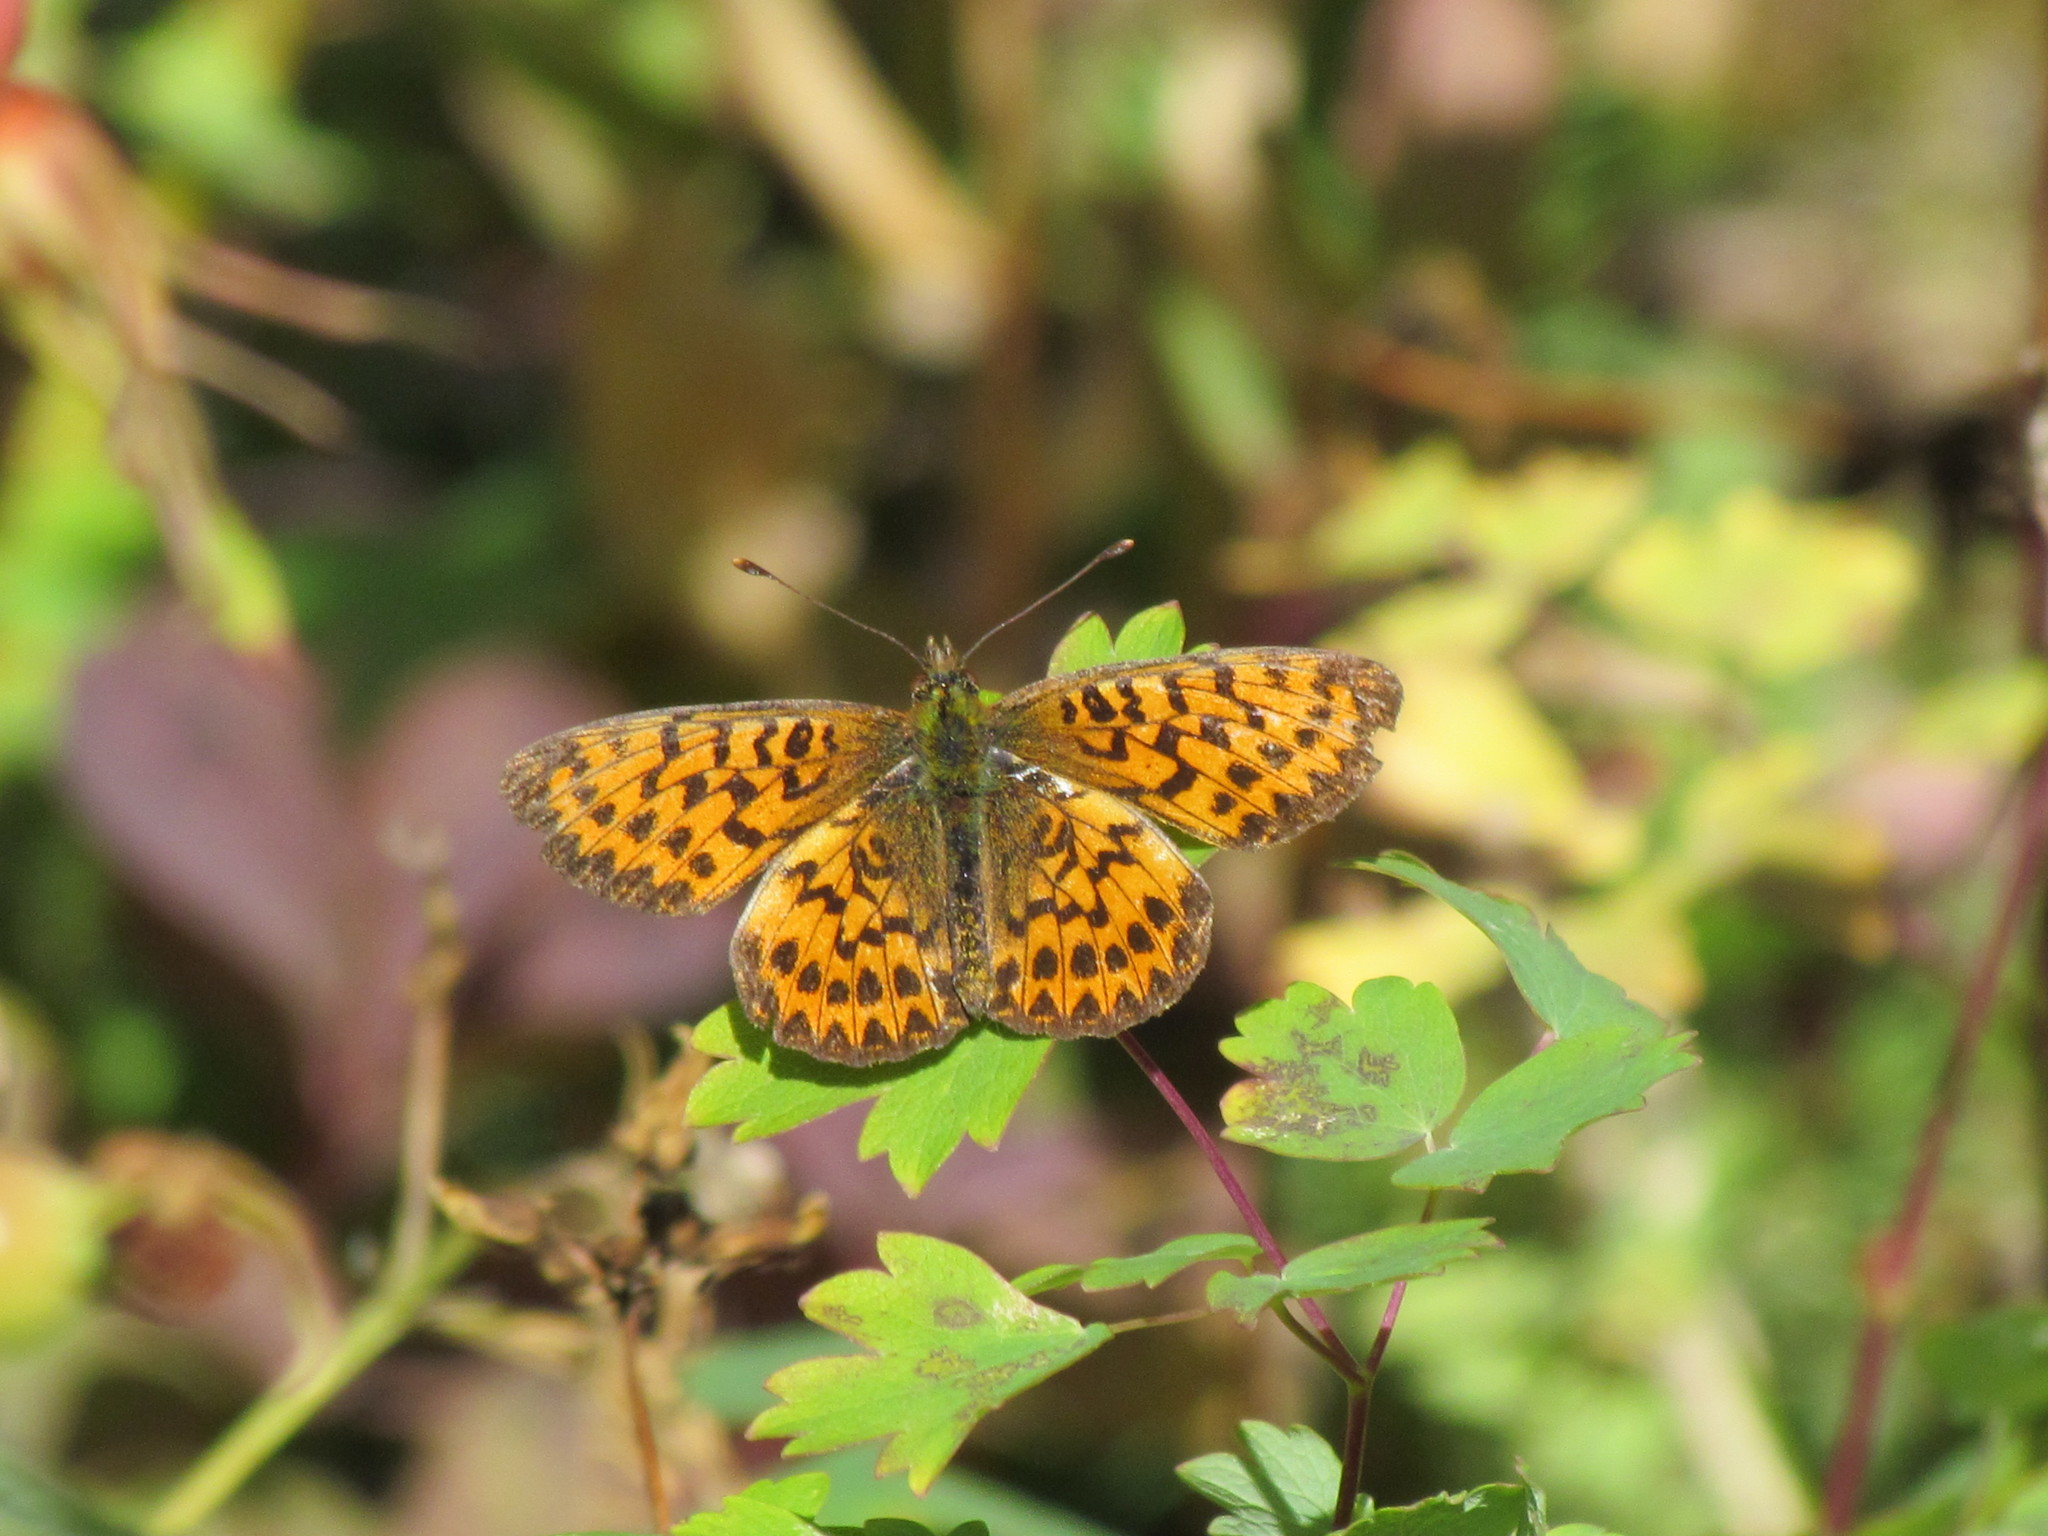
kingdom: Animalia
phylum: Arthropoda
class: Insecta
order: Lepidoptera
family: Nymphalidae
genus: Boloria
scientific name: Boloria chariclea
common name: Arctic fritillary
